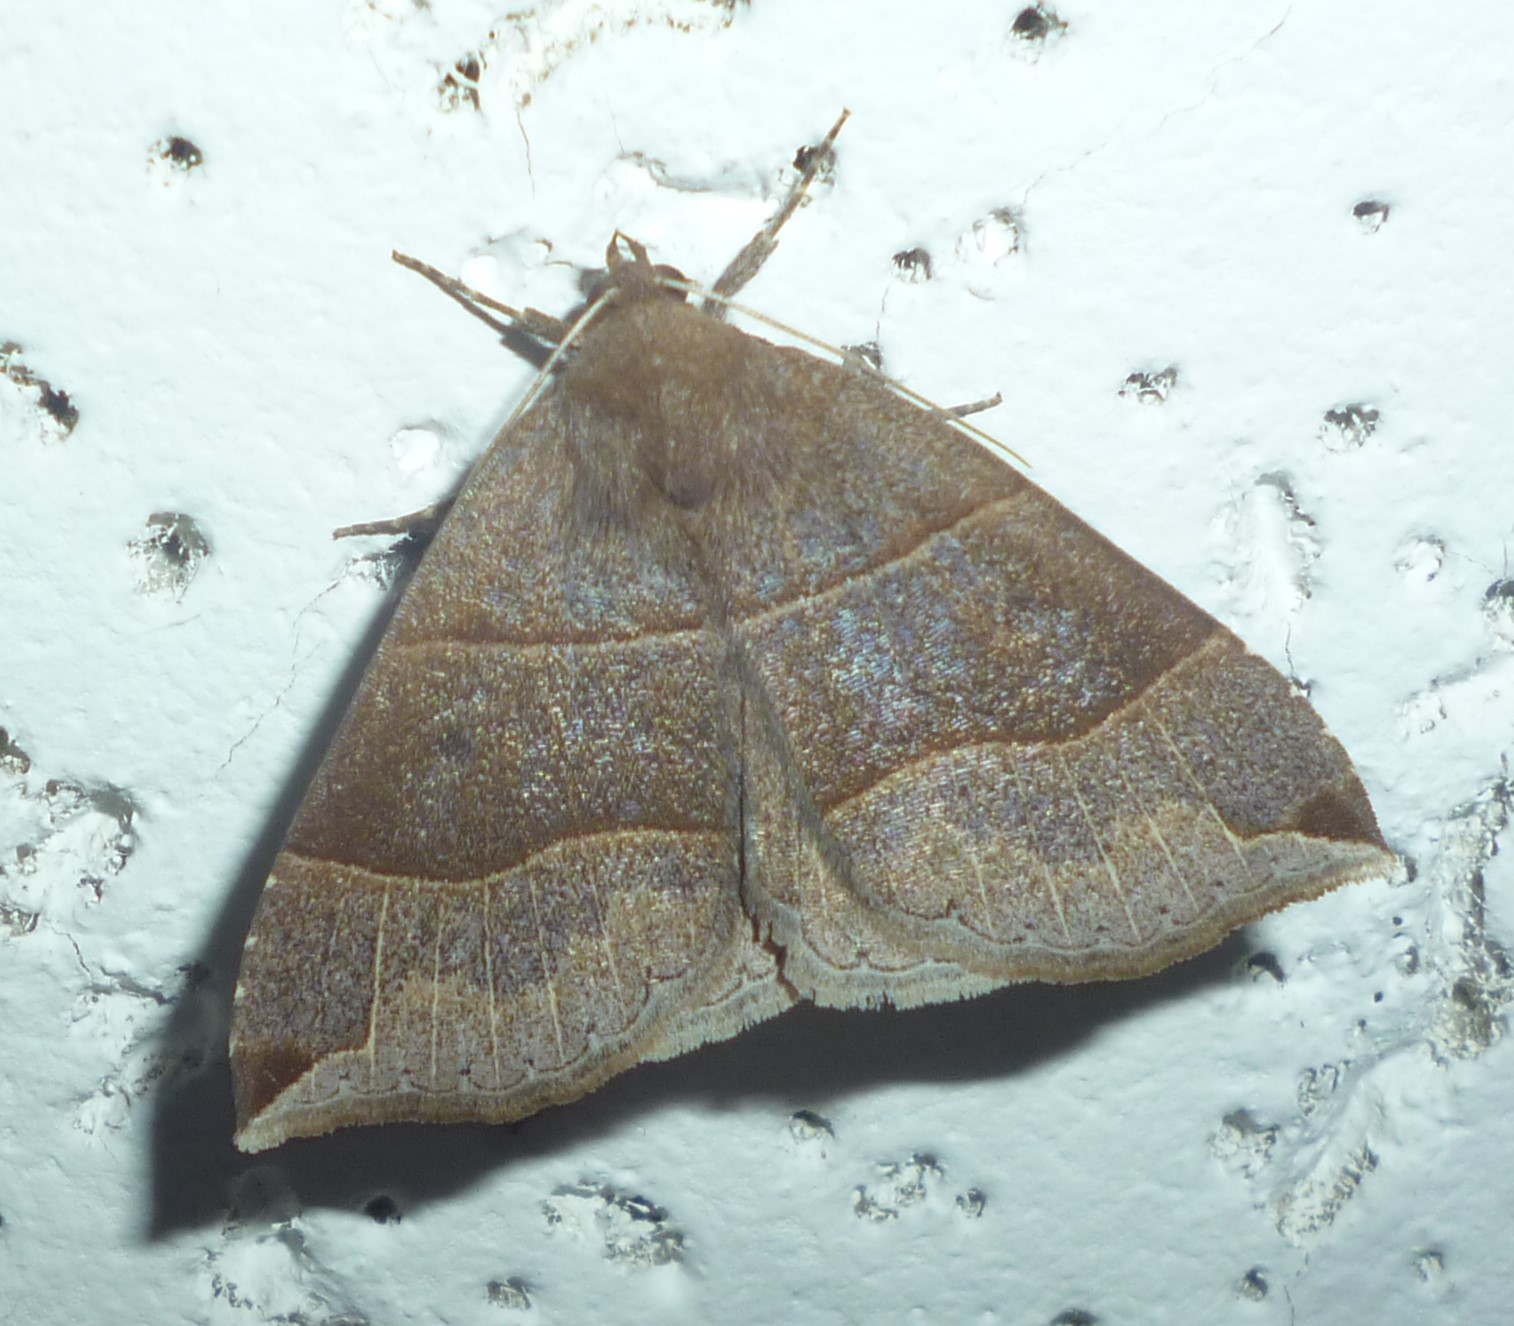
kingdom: Animalia
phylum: Arthropoda
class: Insecta
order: Lepidoptera
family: Erebidae
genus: Parallelia
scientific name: Parallelia bistriaris
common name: Maple looper moth
